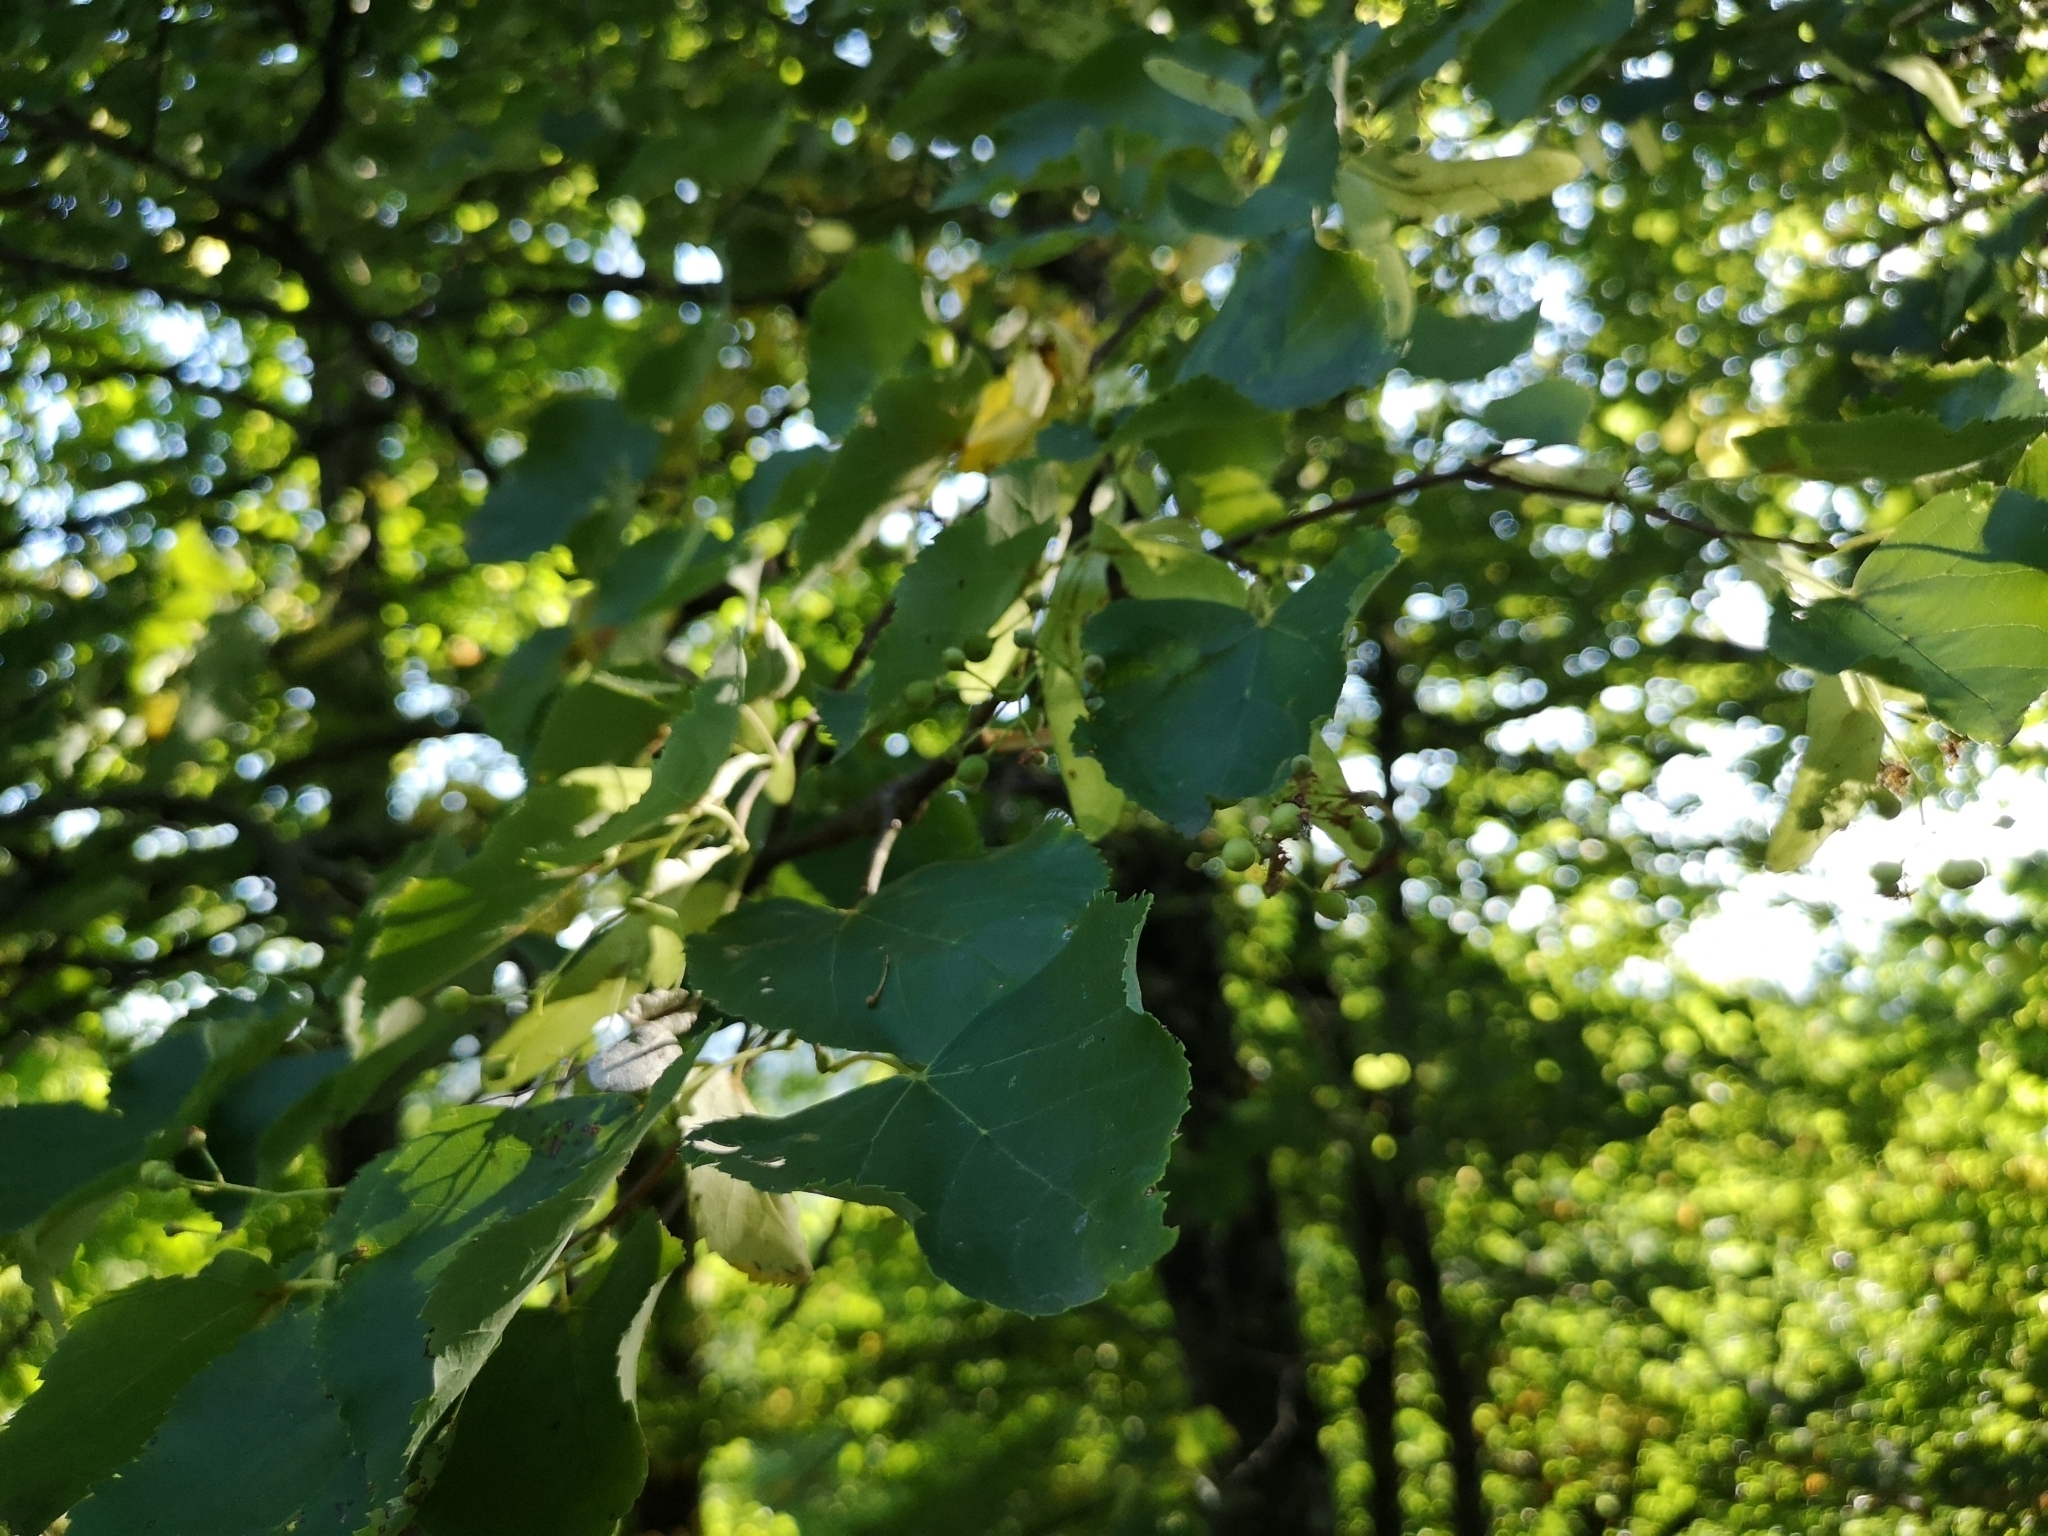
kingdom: Plantae
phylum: Tracheophyta
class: Magnoliopsida
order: Malvales
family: Malvaceae
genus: Tilia
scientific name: Tilia cordata
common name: Small-leaved lime
